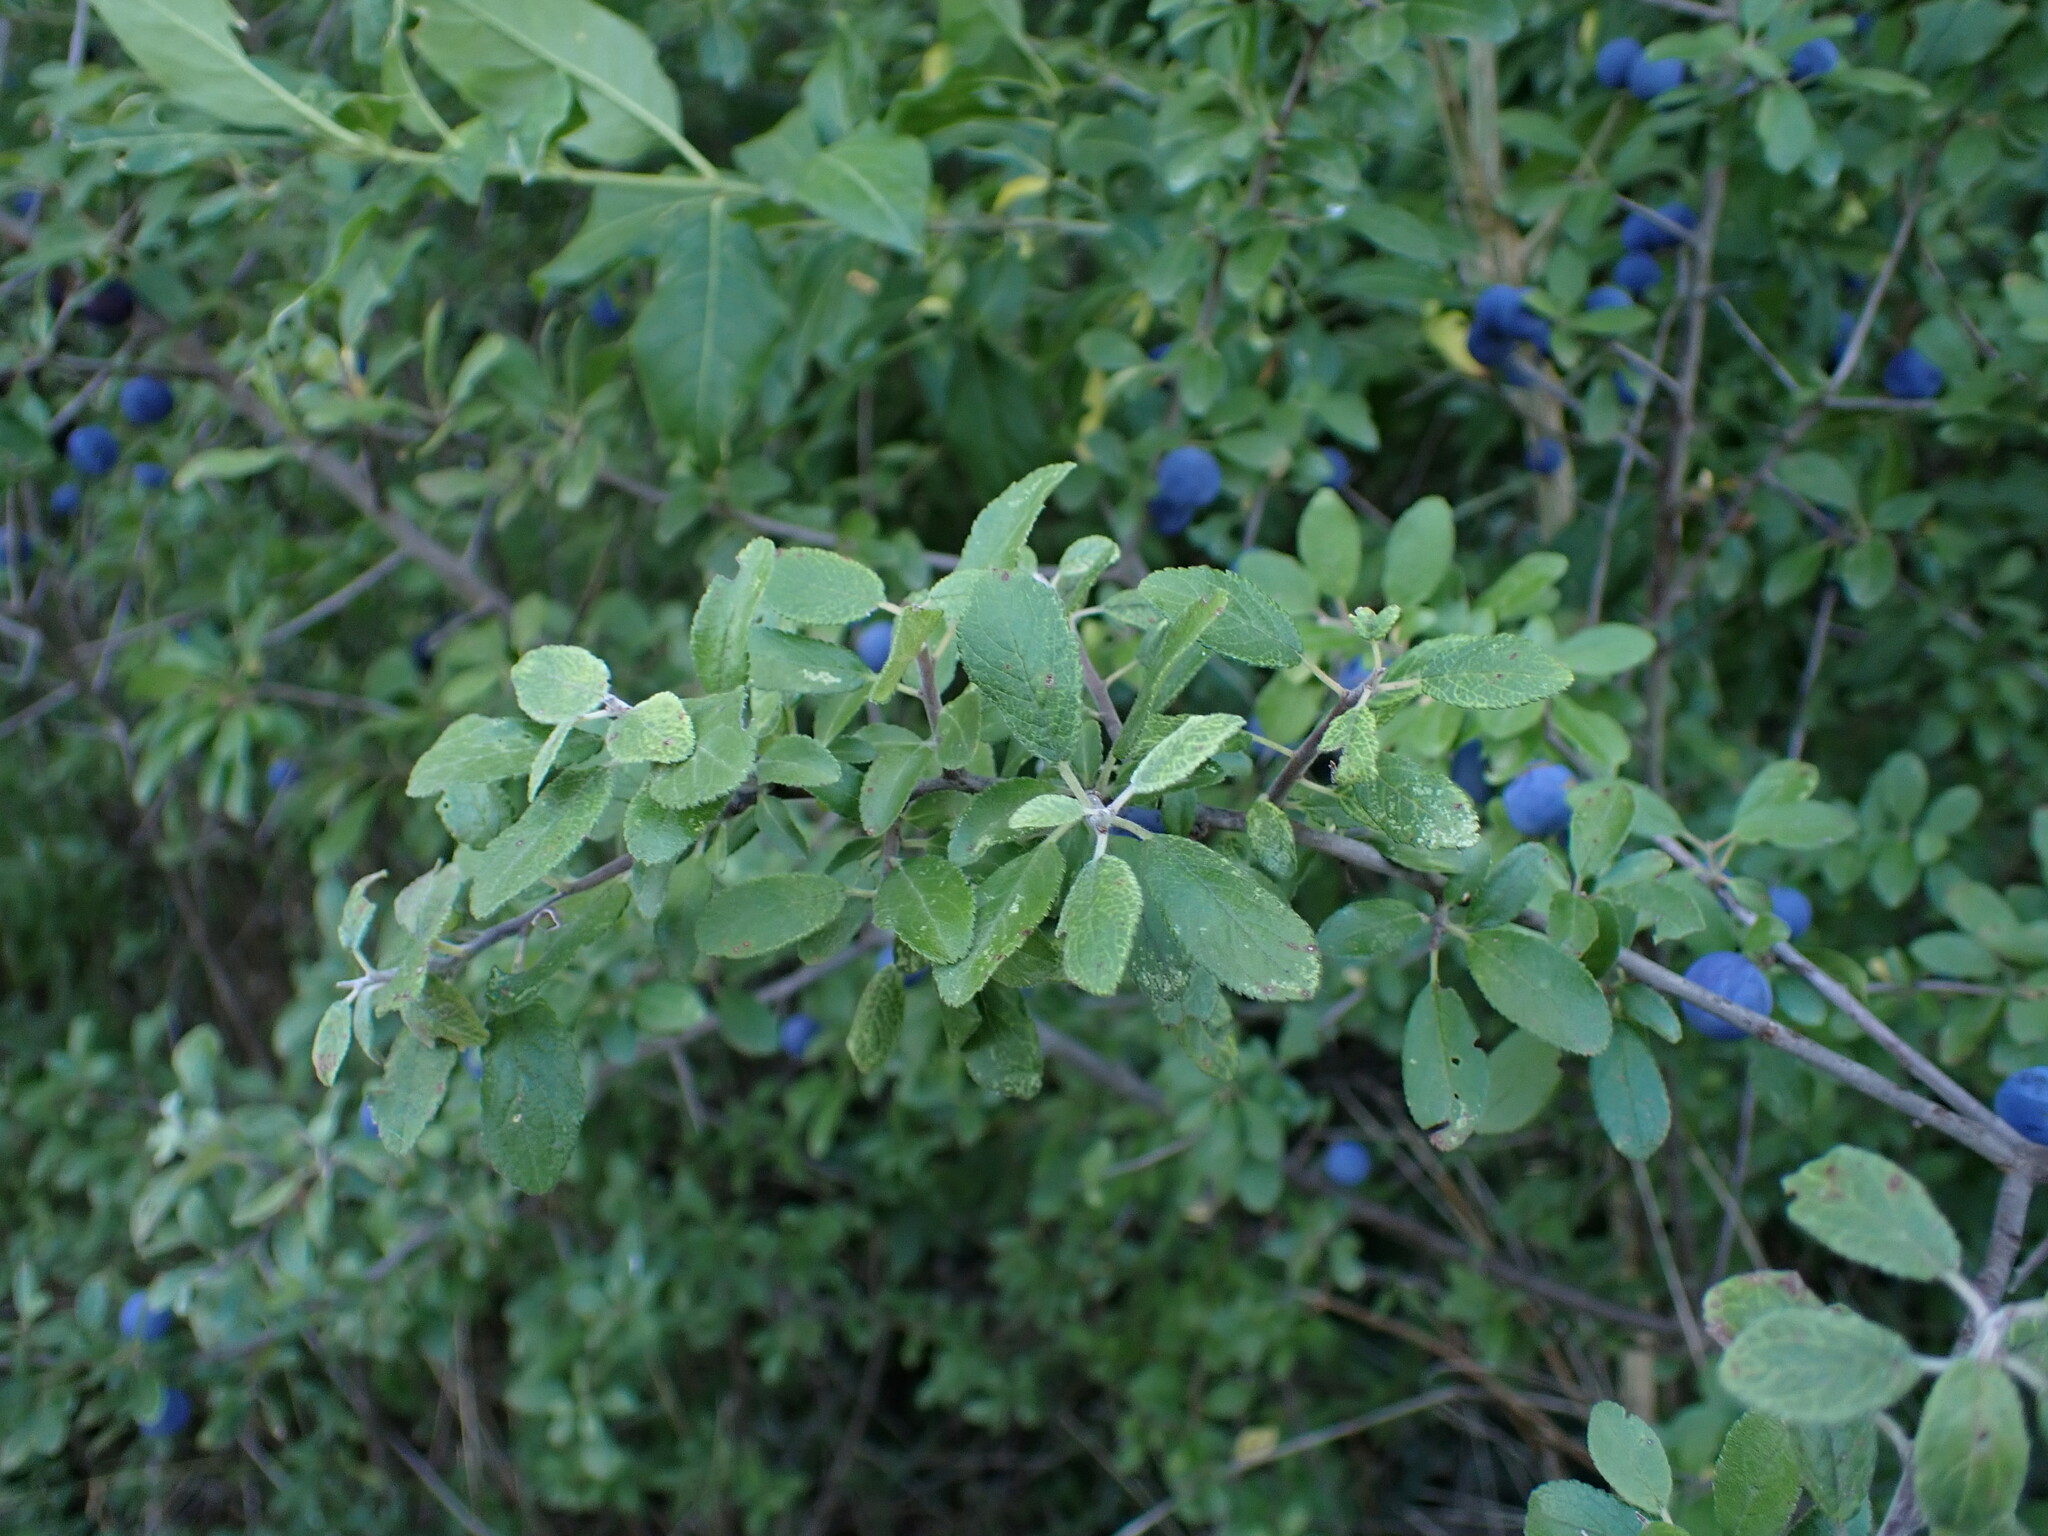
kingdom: Plantae
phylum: Tracheophyta
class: Magnoliopsida
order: Rosales
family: Rosaceae
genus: Prunus
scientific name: Prunus spinosa
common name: Blackthorn
